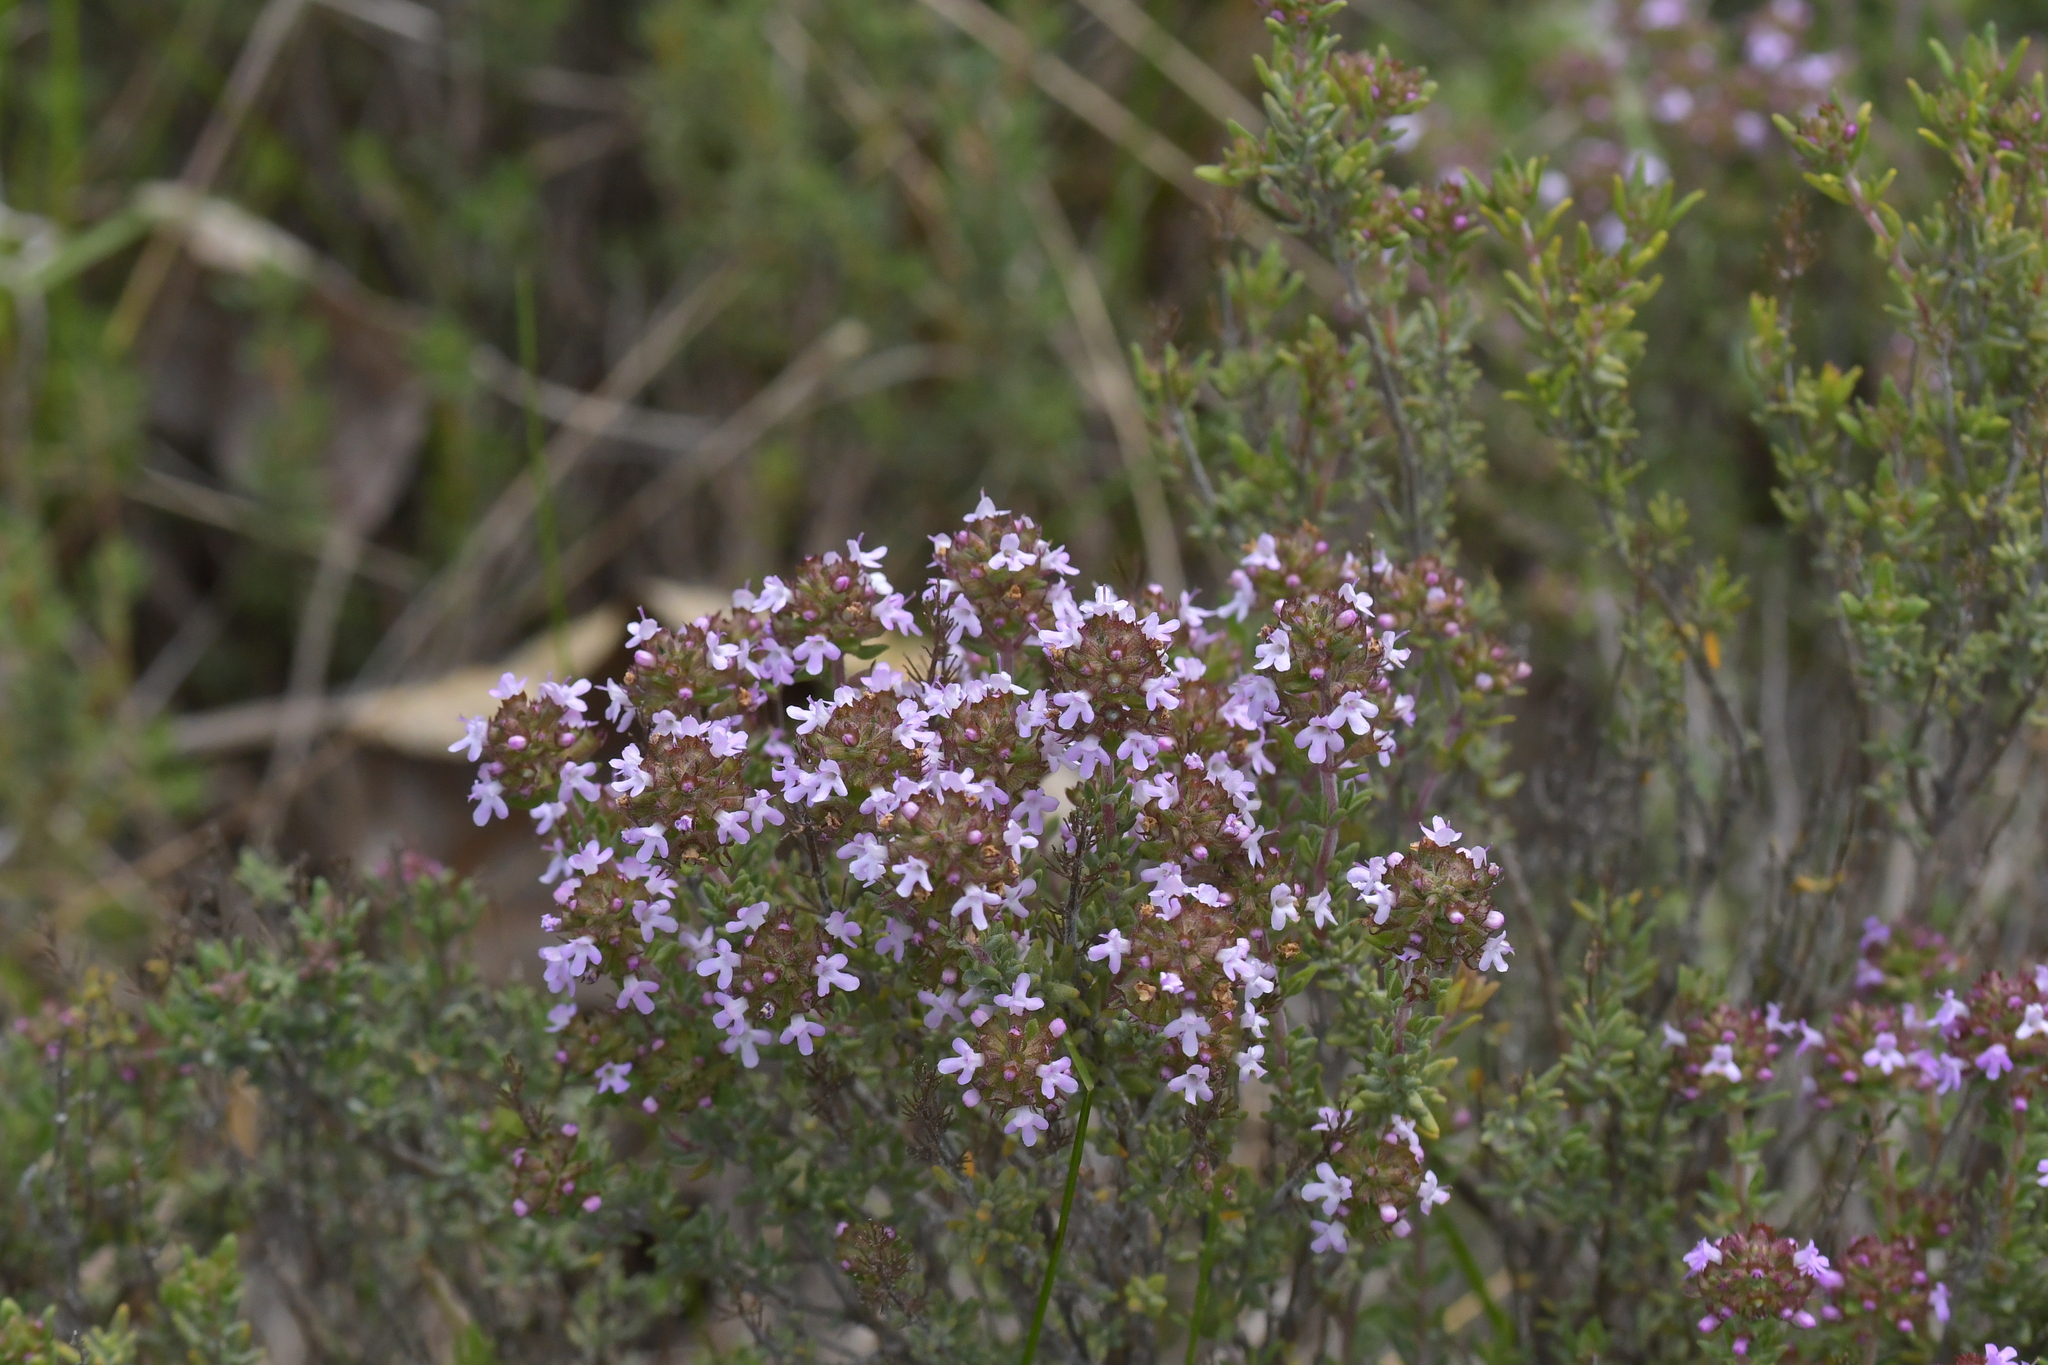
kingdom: Plantae
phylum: Tracheophyta
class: Magnoliopsida
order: Lamiales
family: Lamiaceae
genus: Thymus
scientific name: Thymus vulgaris
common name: Garden thyme
